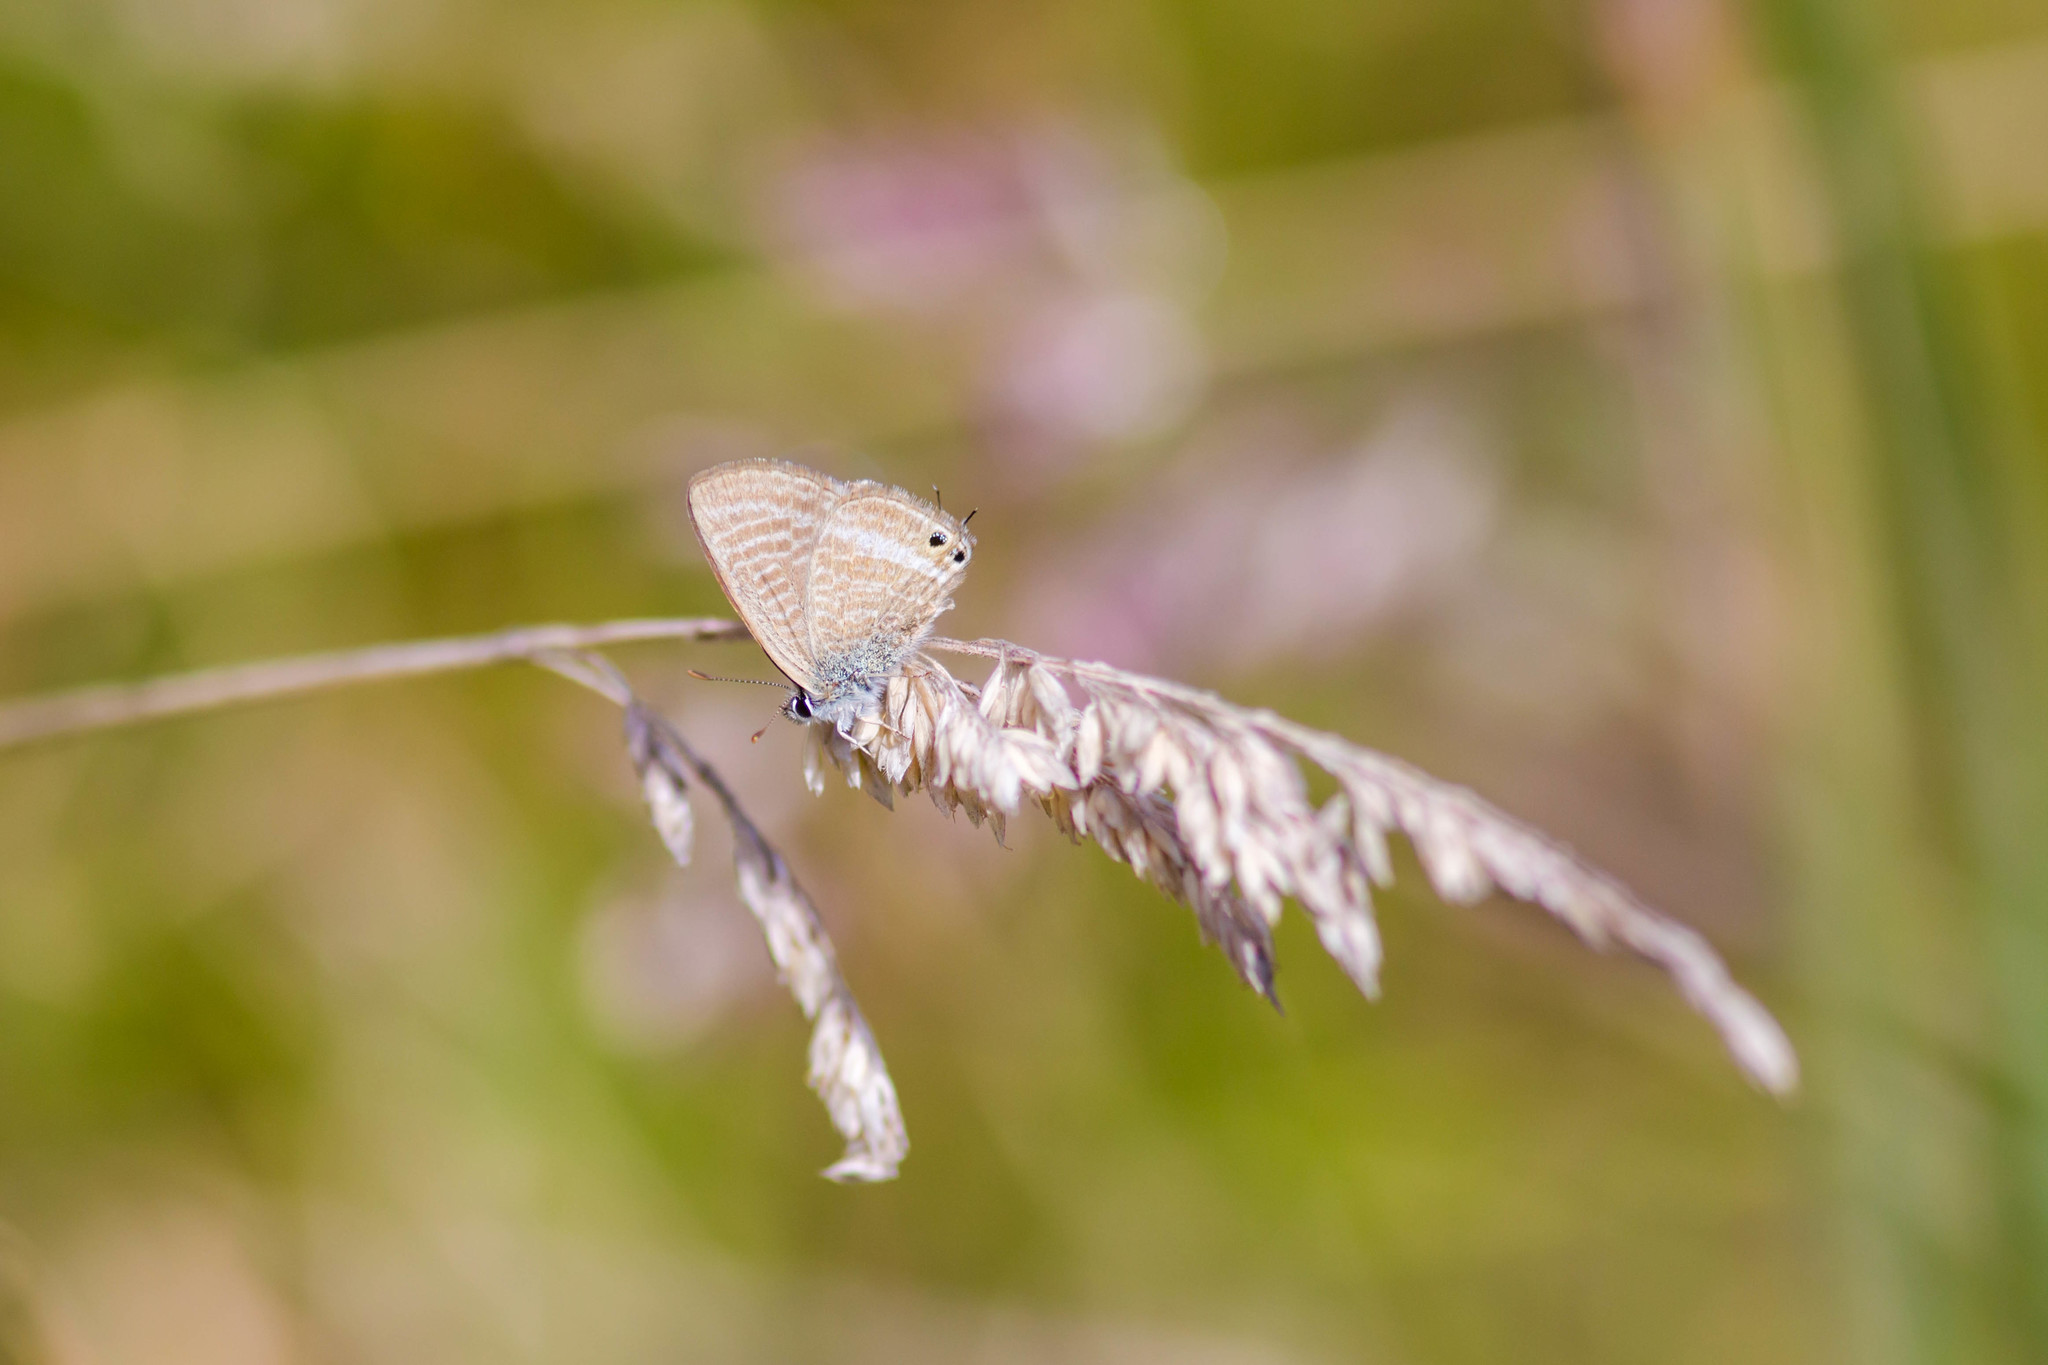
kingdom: Animalia
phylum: Arthropoda
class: Insecta
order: Lepidoptera
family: Lycaenidae
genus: Lampides
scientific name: Lampides boeticus
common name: Long-tailed blue
